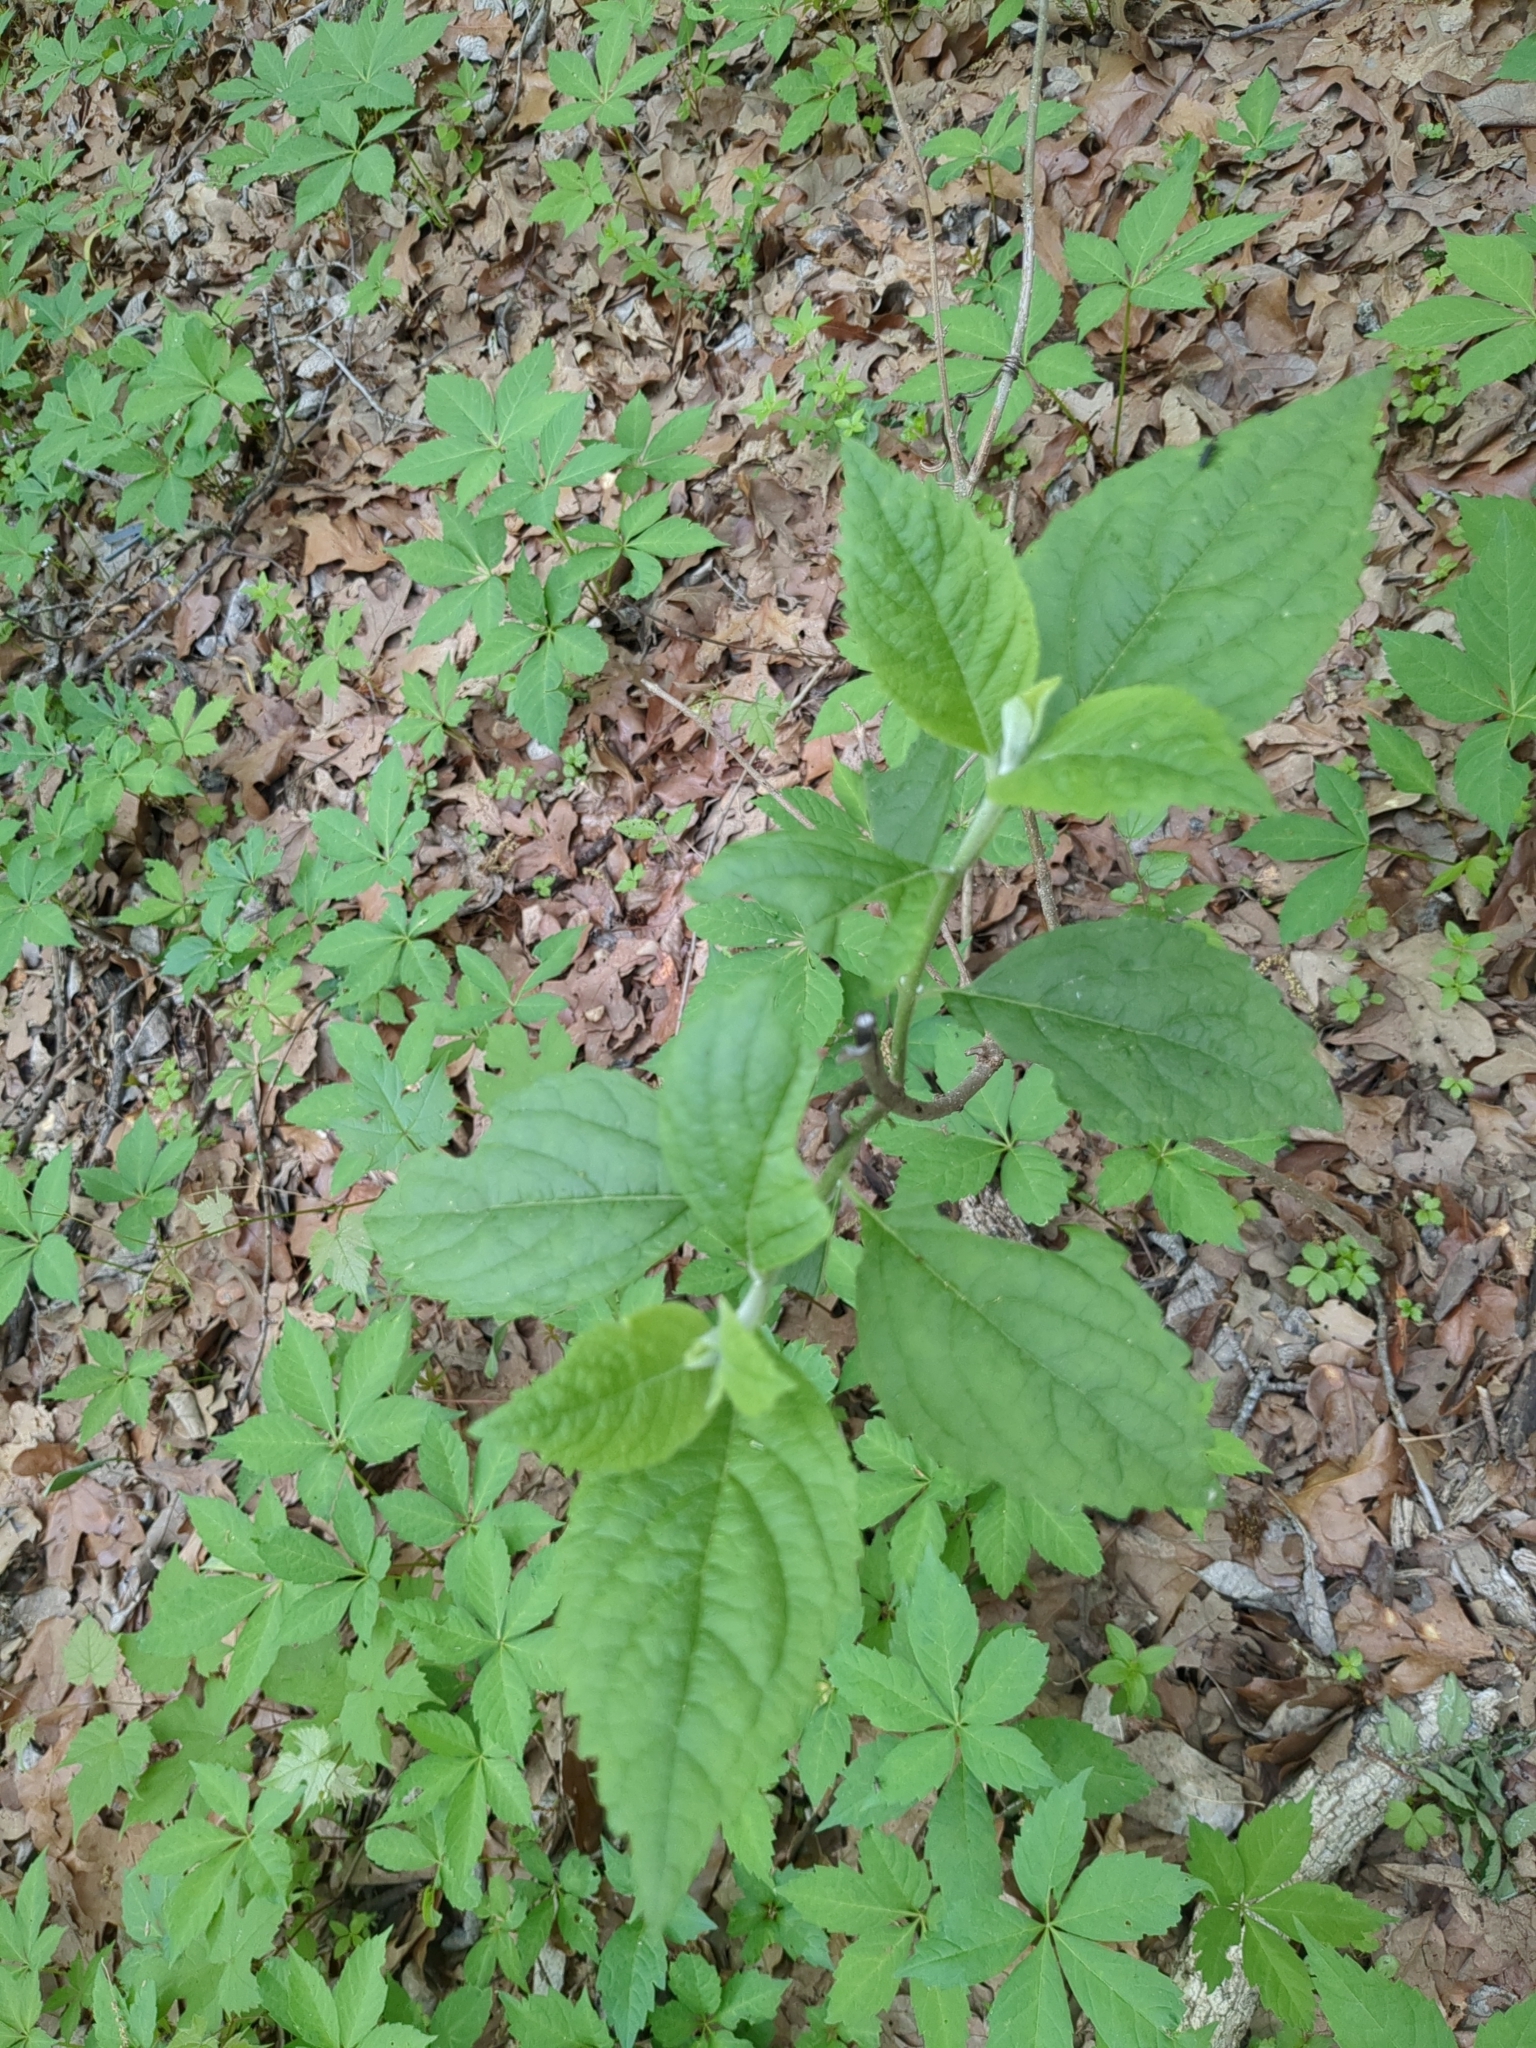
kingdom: Plantae
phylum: Tracheophyta
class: Magnoliopsida
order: Lamiales
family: Lamiaceae
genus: Callicarpa
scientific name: Callicarpa americana
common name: American beautyberry
